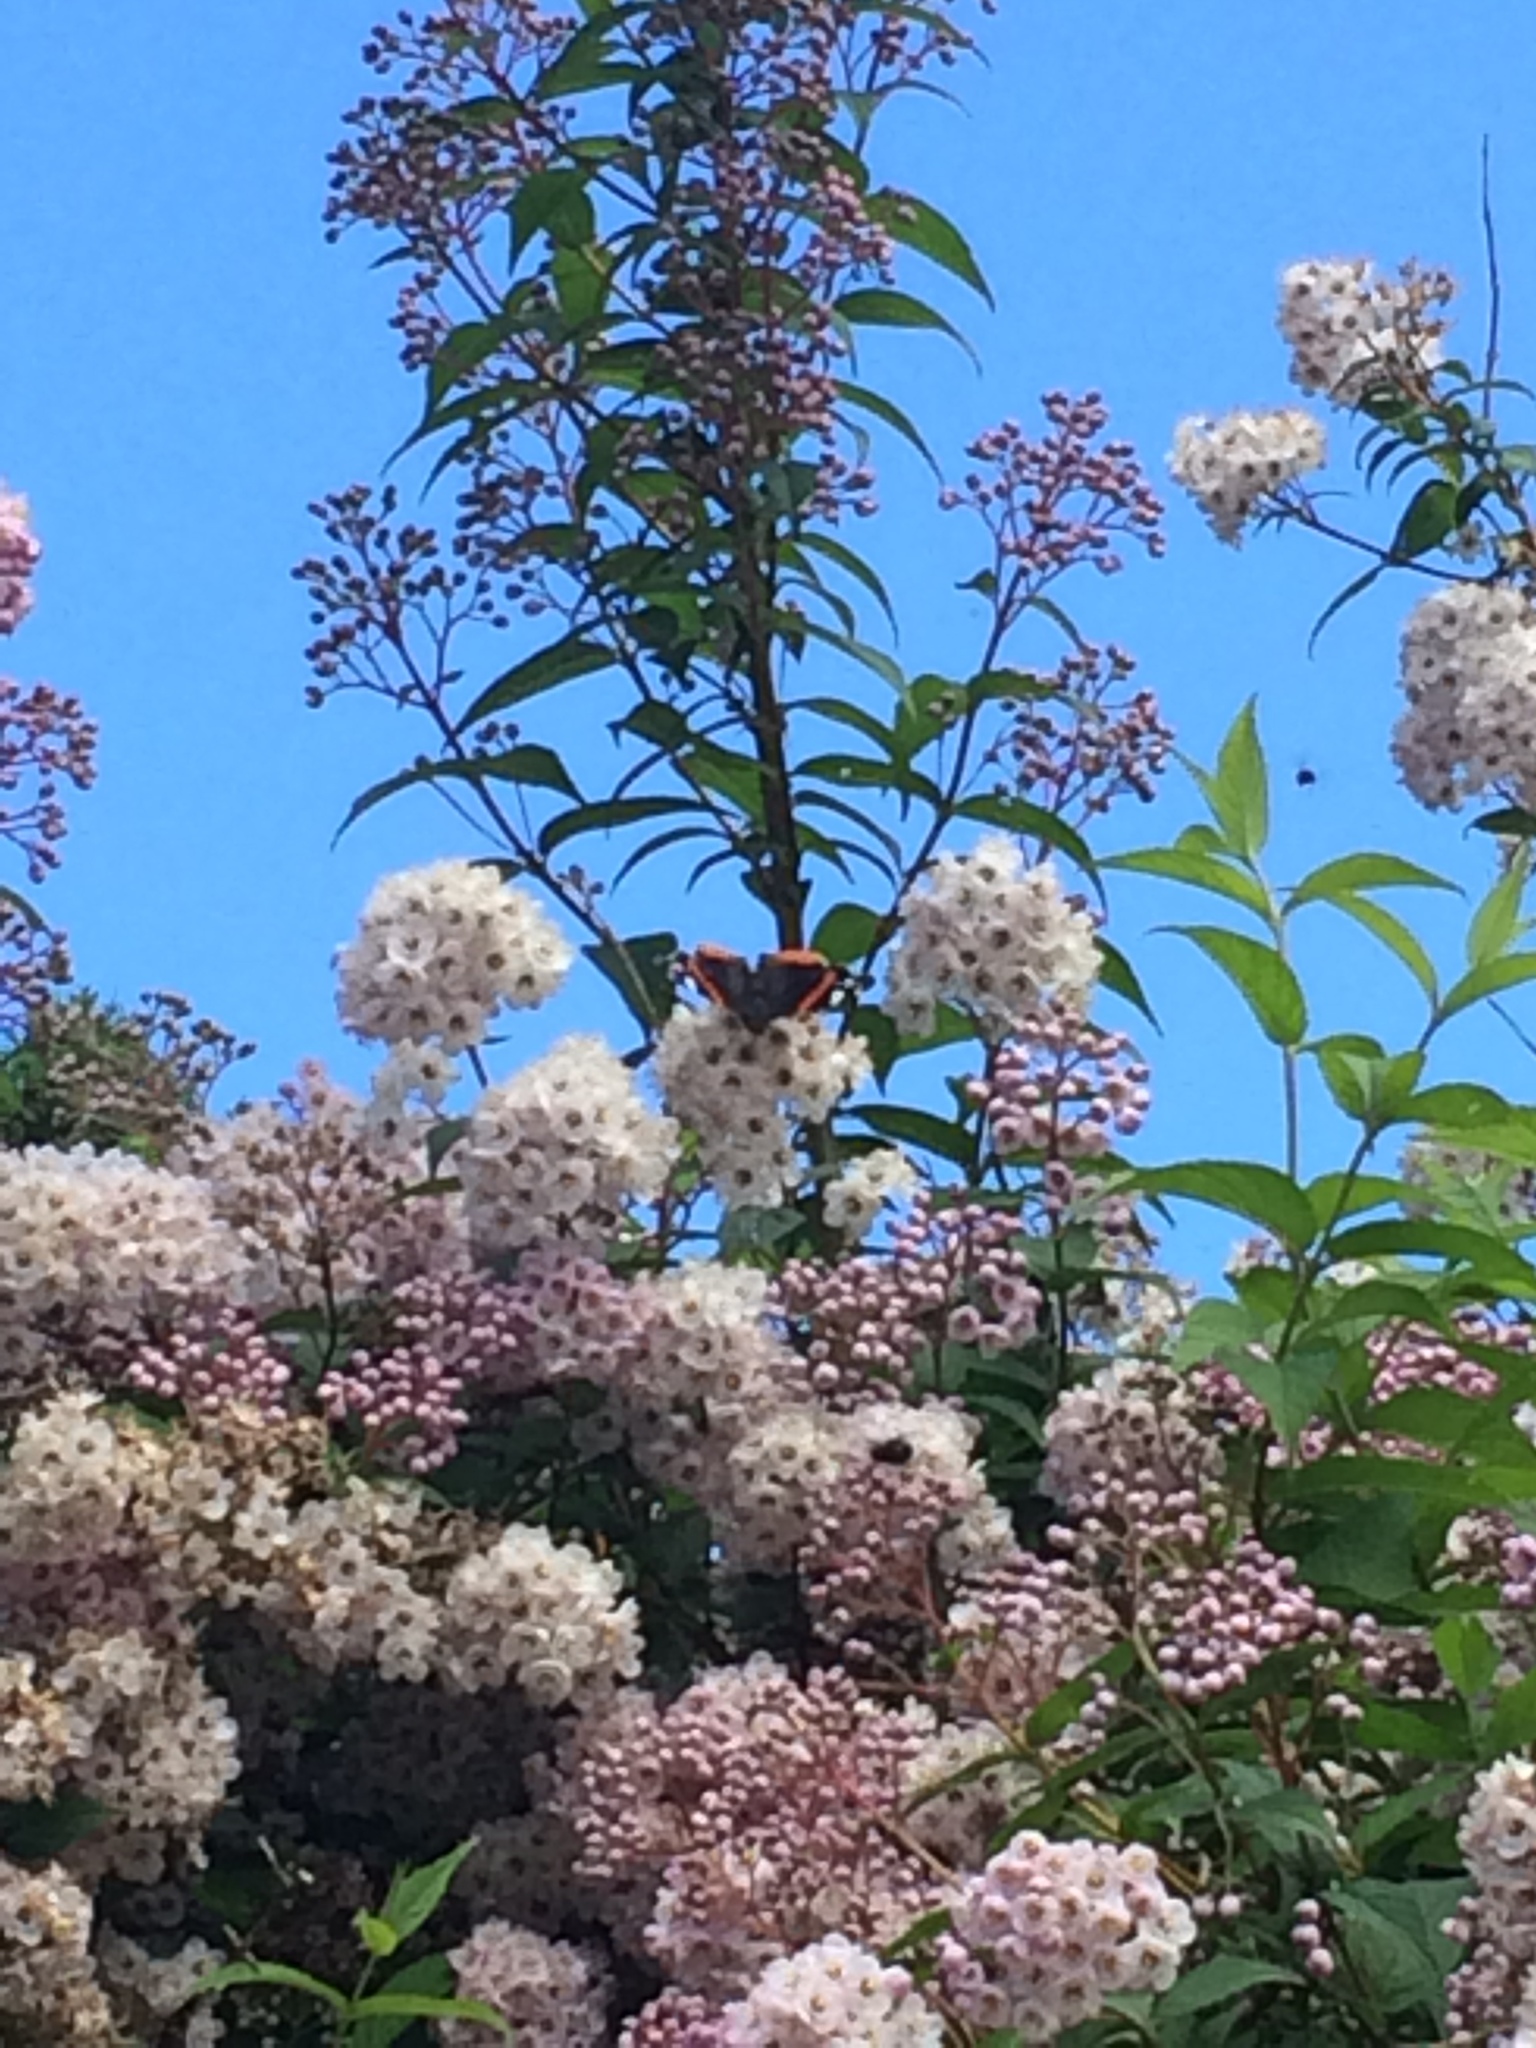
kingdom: Animalia
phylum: Arthropoda
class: Insecta
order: Lepidoptera
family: Nymphalidae
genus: Vanessa
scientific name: Vanessa atalanta
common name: Red admiral
